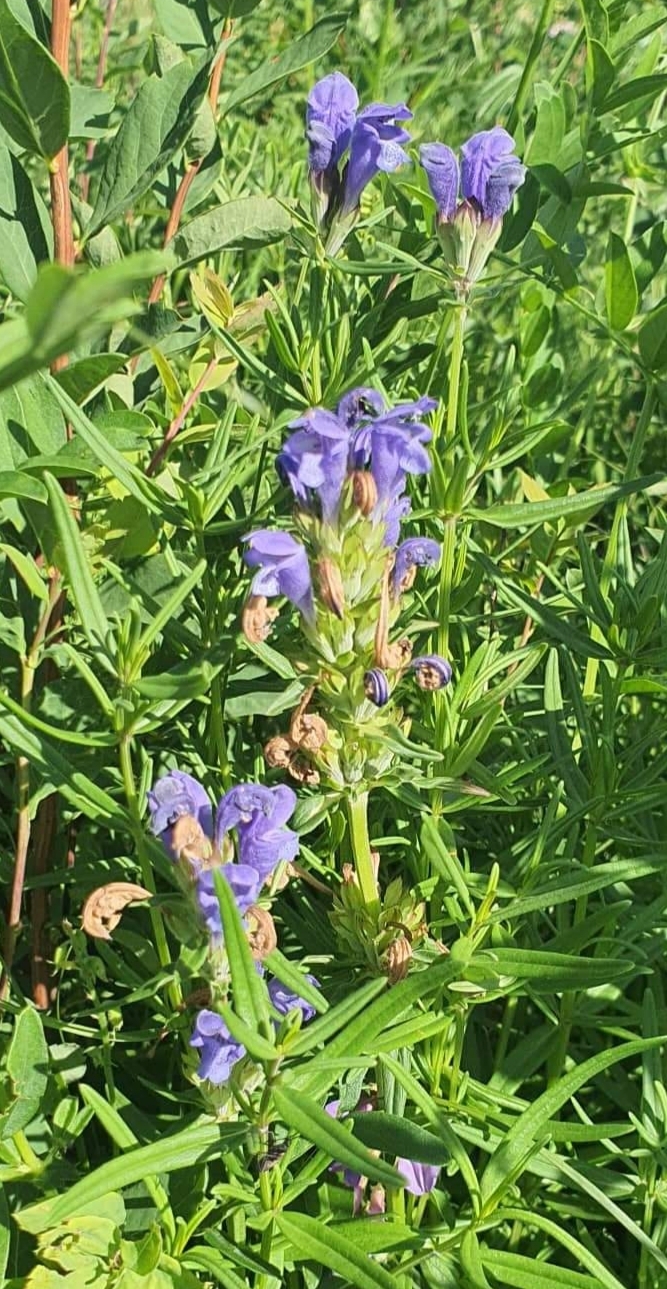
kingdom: Plantae
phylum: Tracheophyta
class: Magnoliopsida
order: Lamiales
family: Lamiaceae
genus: Scutellaria
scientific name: Scutellaria scordiifolia
